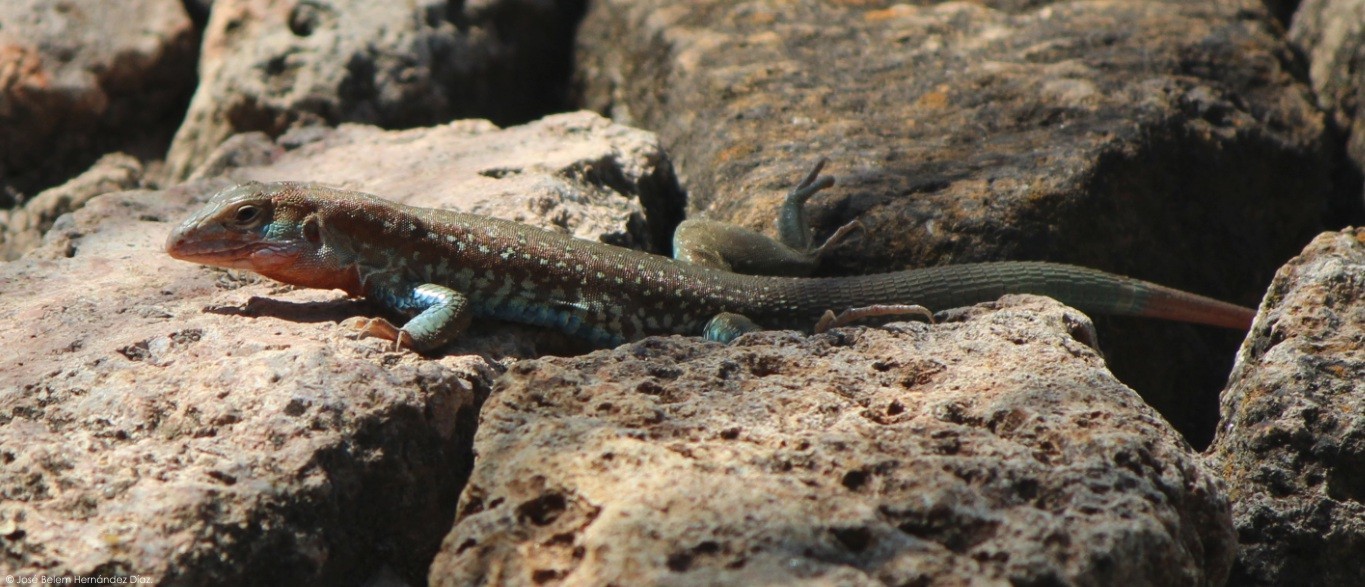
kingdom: Animalia
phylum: Chordata
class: Squamata
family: Teiidae
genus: Aspidoscelis
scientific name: Aspidoscelis gularis
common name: Eastern spotted whiptail
